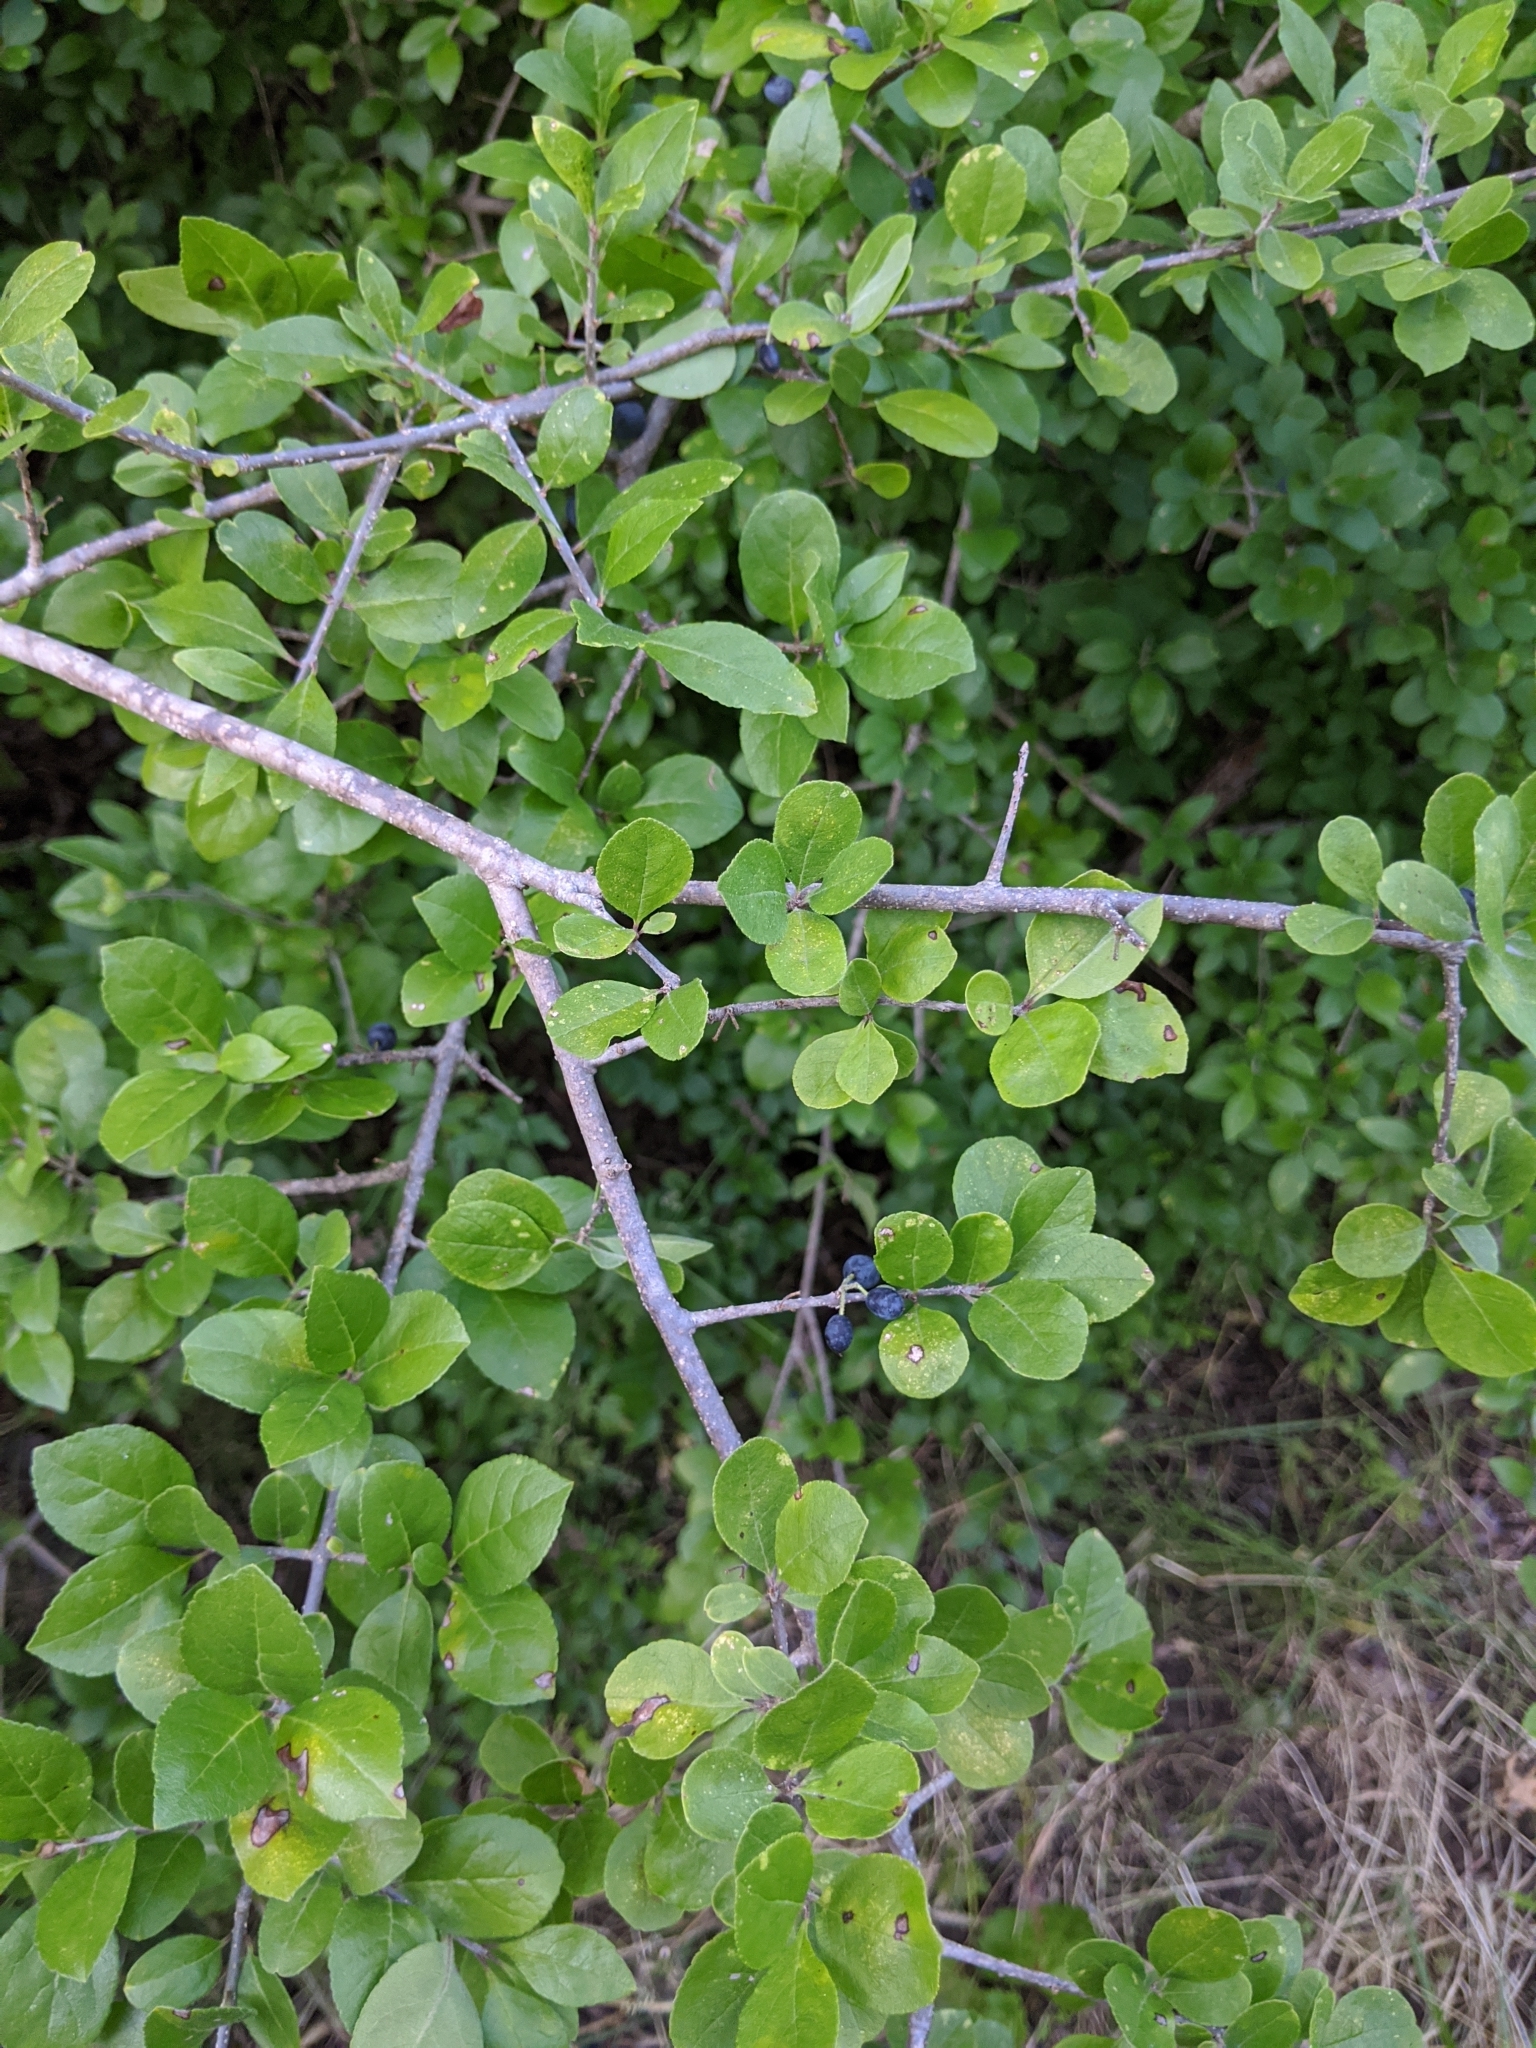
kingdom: Plantae
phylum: Tracheophyta
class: Magnoliopsida
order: Lamiales
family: Oleaceae
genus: Forestiera
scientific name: Forestiera pubescens
